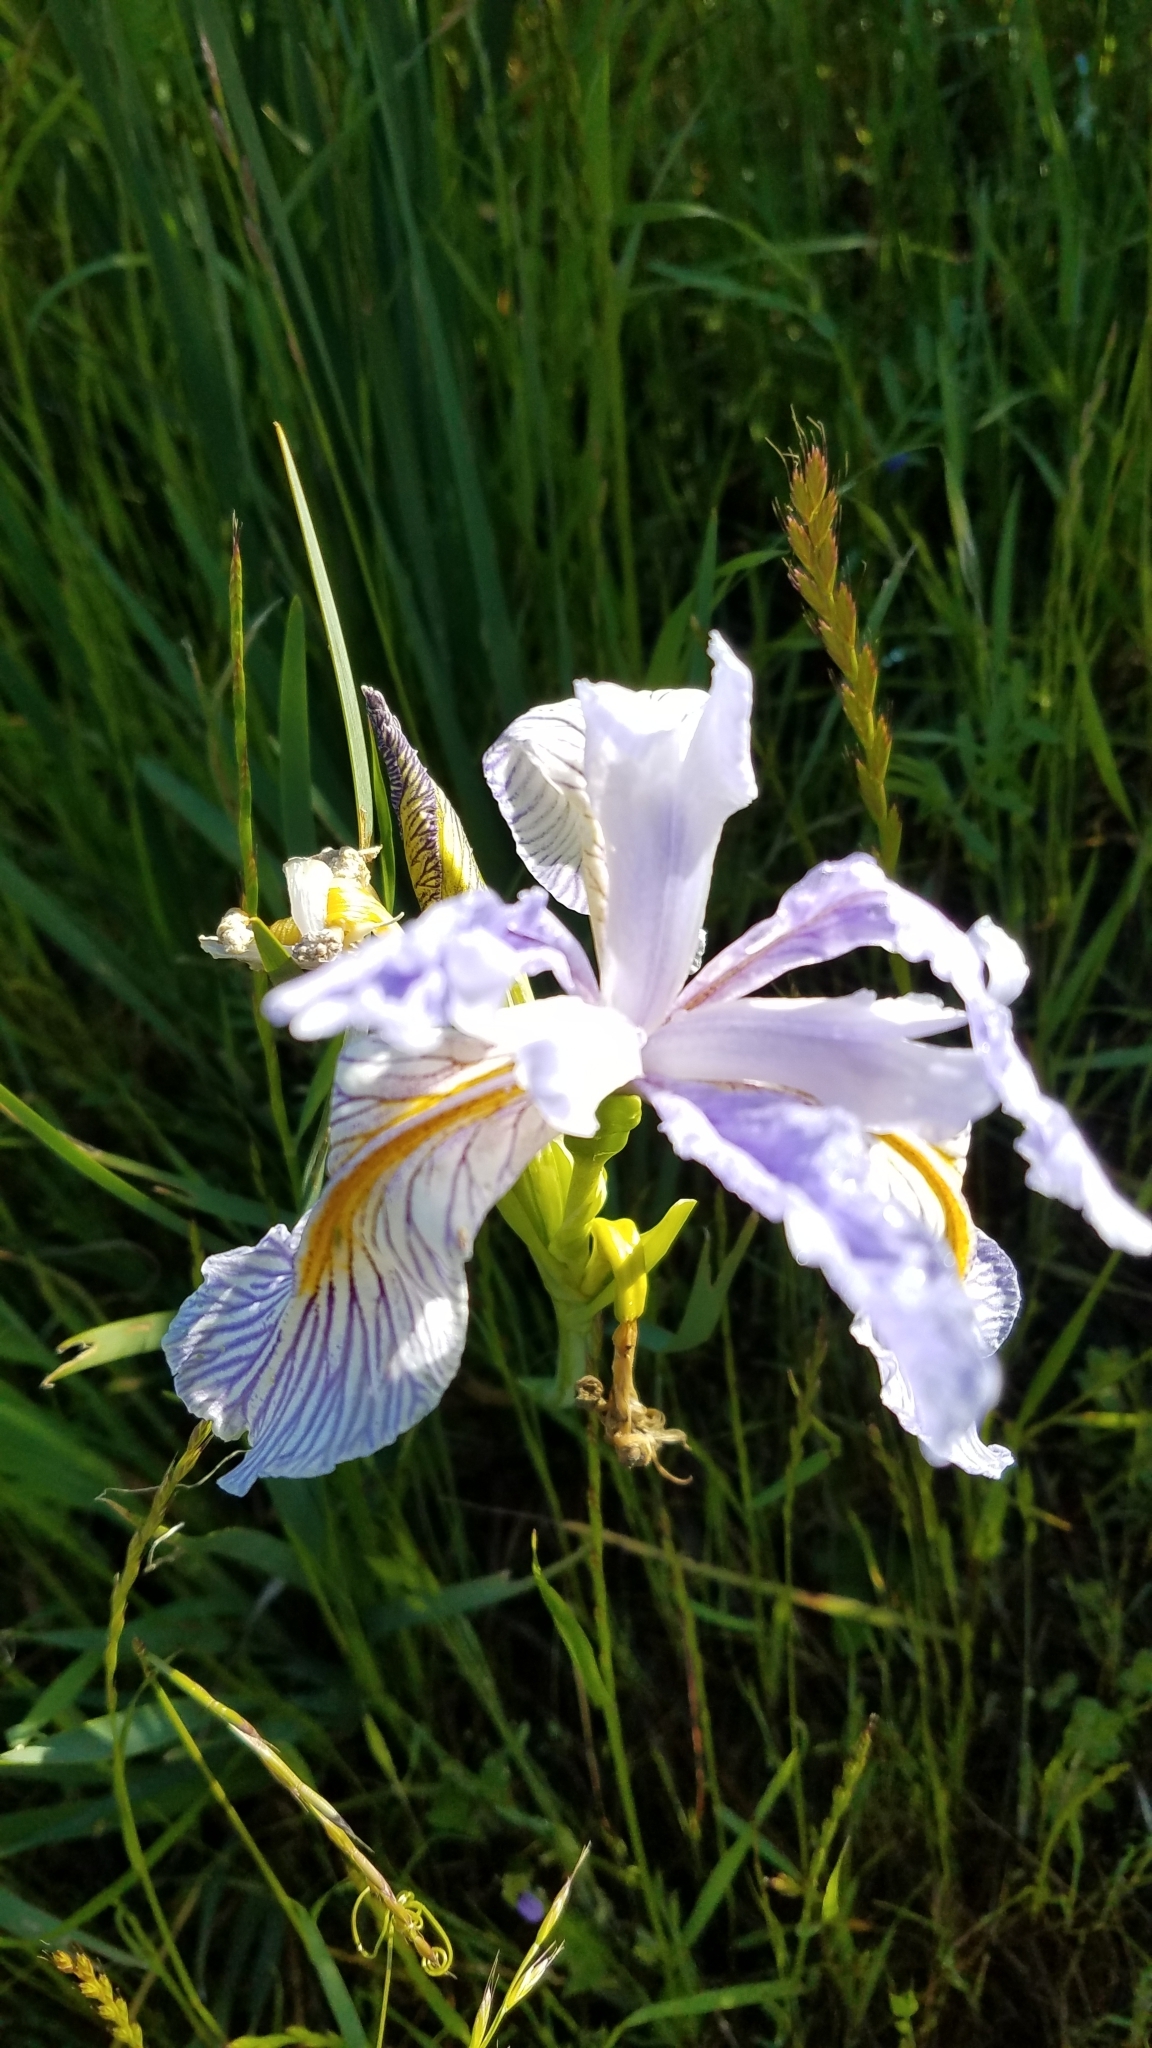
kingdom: Plantae
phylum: Tracheophyta
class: Liliopsida
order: Asparagales
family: Iridaceae
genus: Iris
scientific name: Iris longipetala
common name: Long-petal iris
